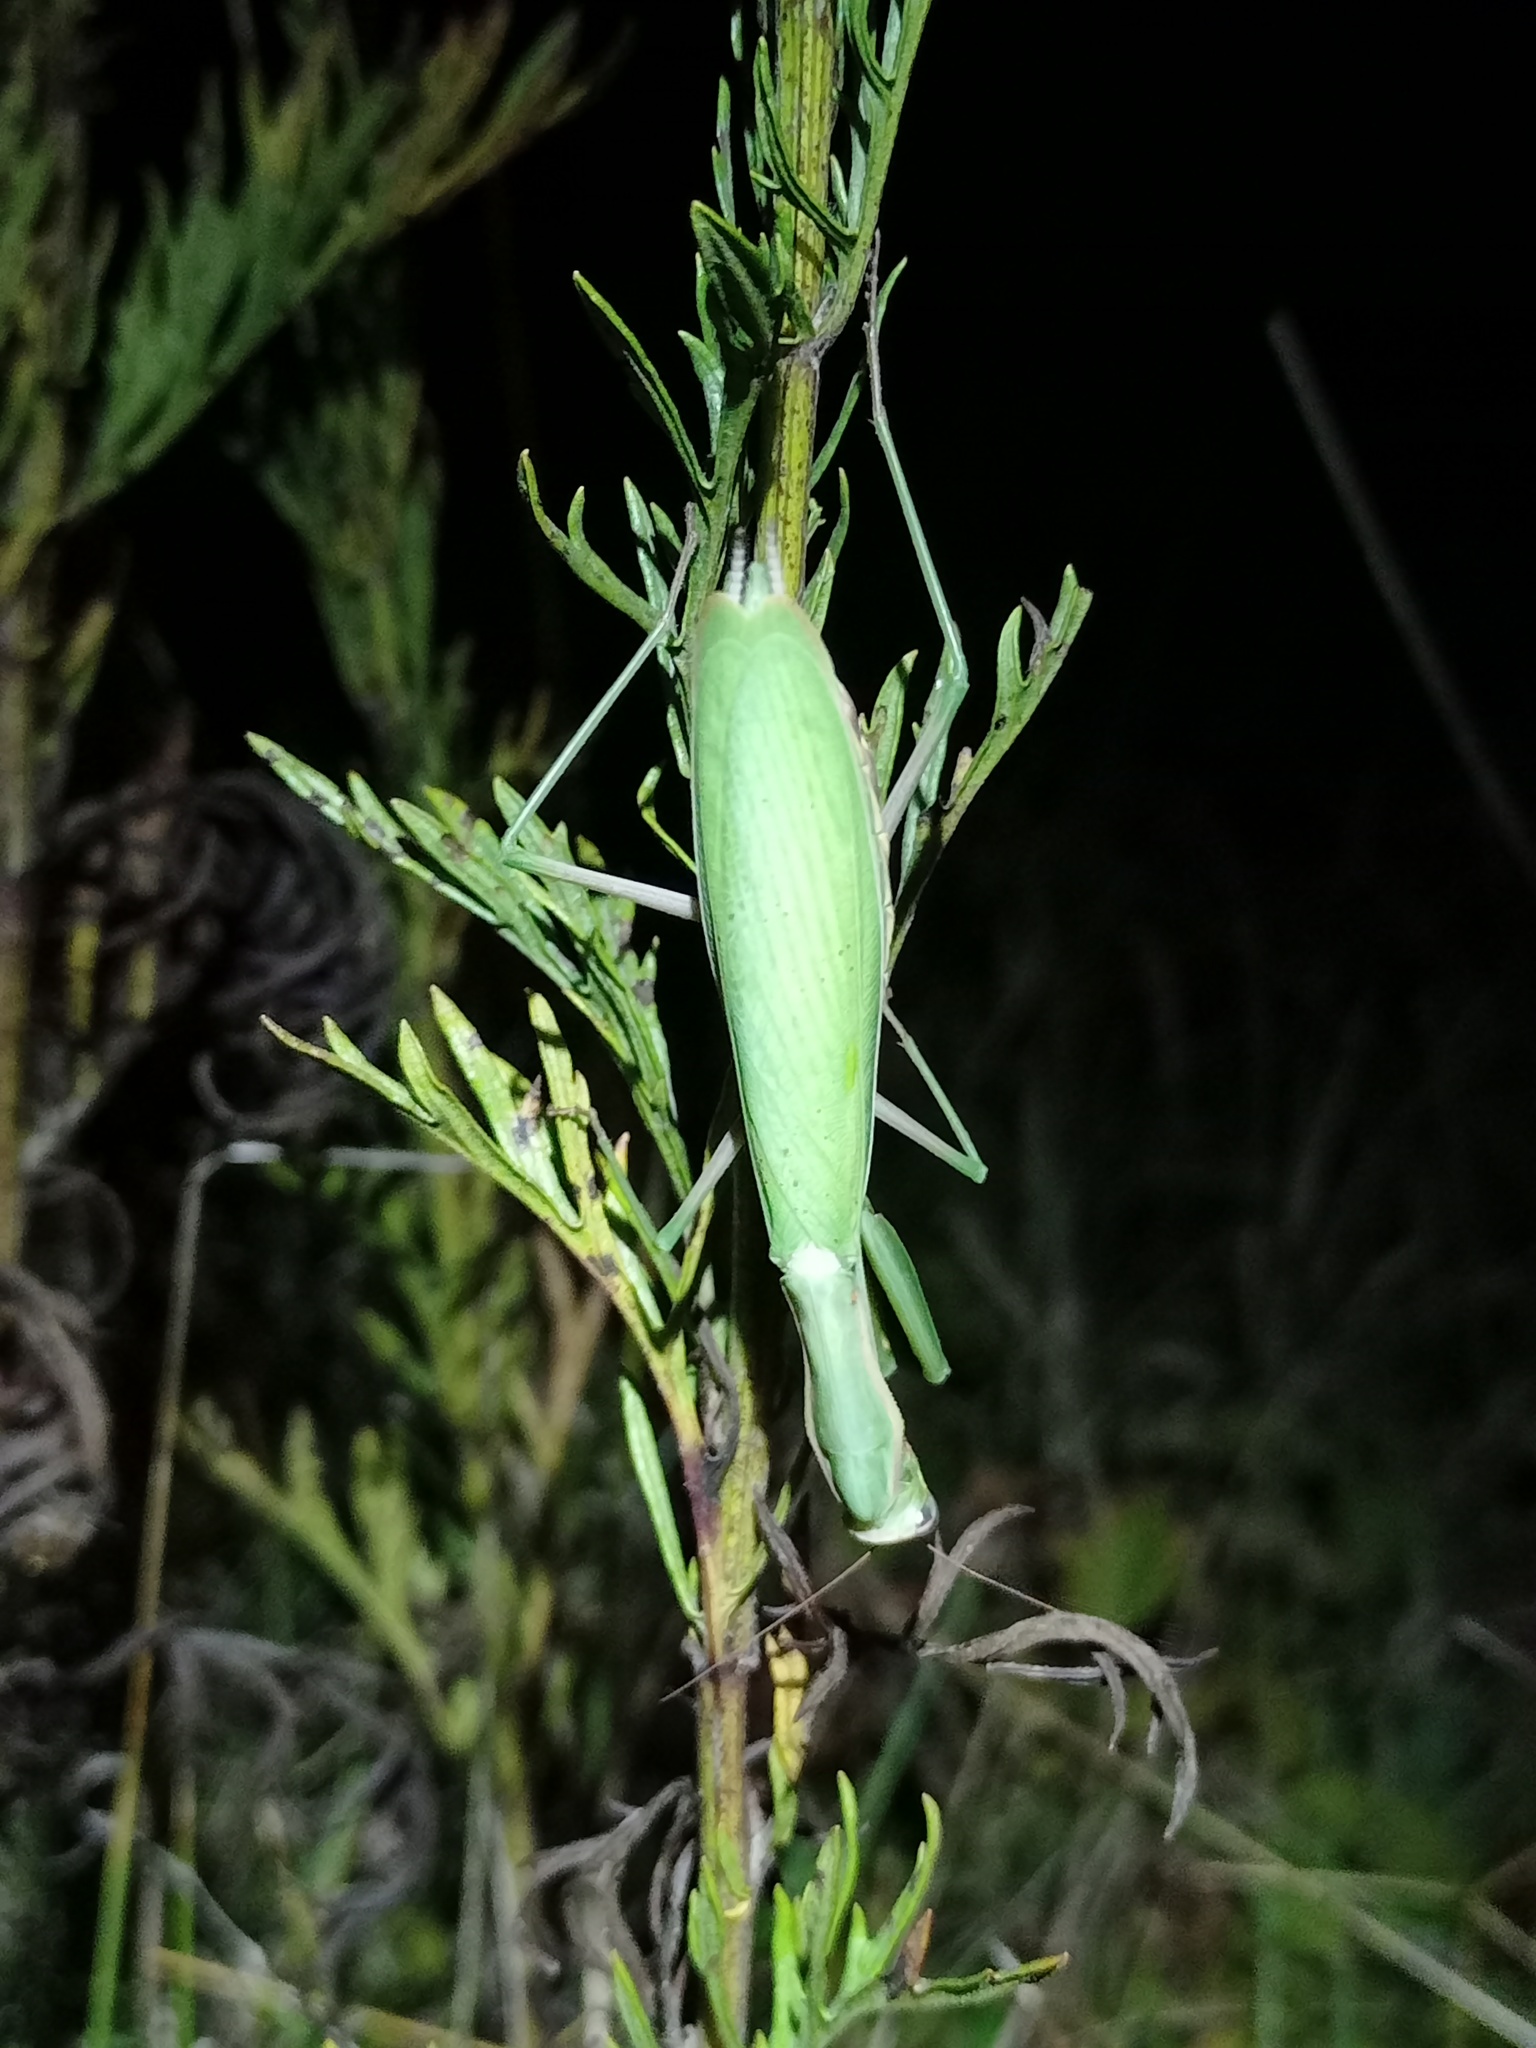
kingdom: Animalia
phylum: Arthropoda
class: Insecta
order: Mantodea
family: Mantidae
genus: Mantis
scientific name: Mantis religiosa
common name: Praying mantis
